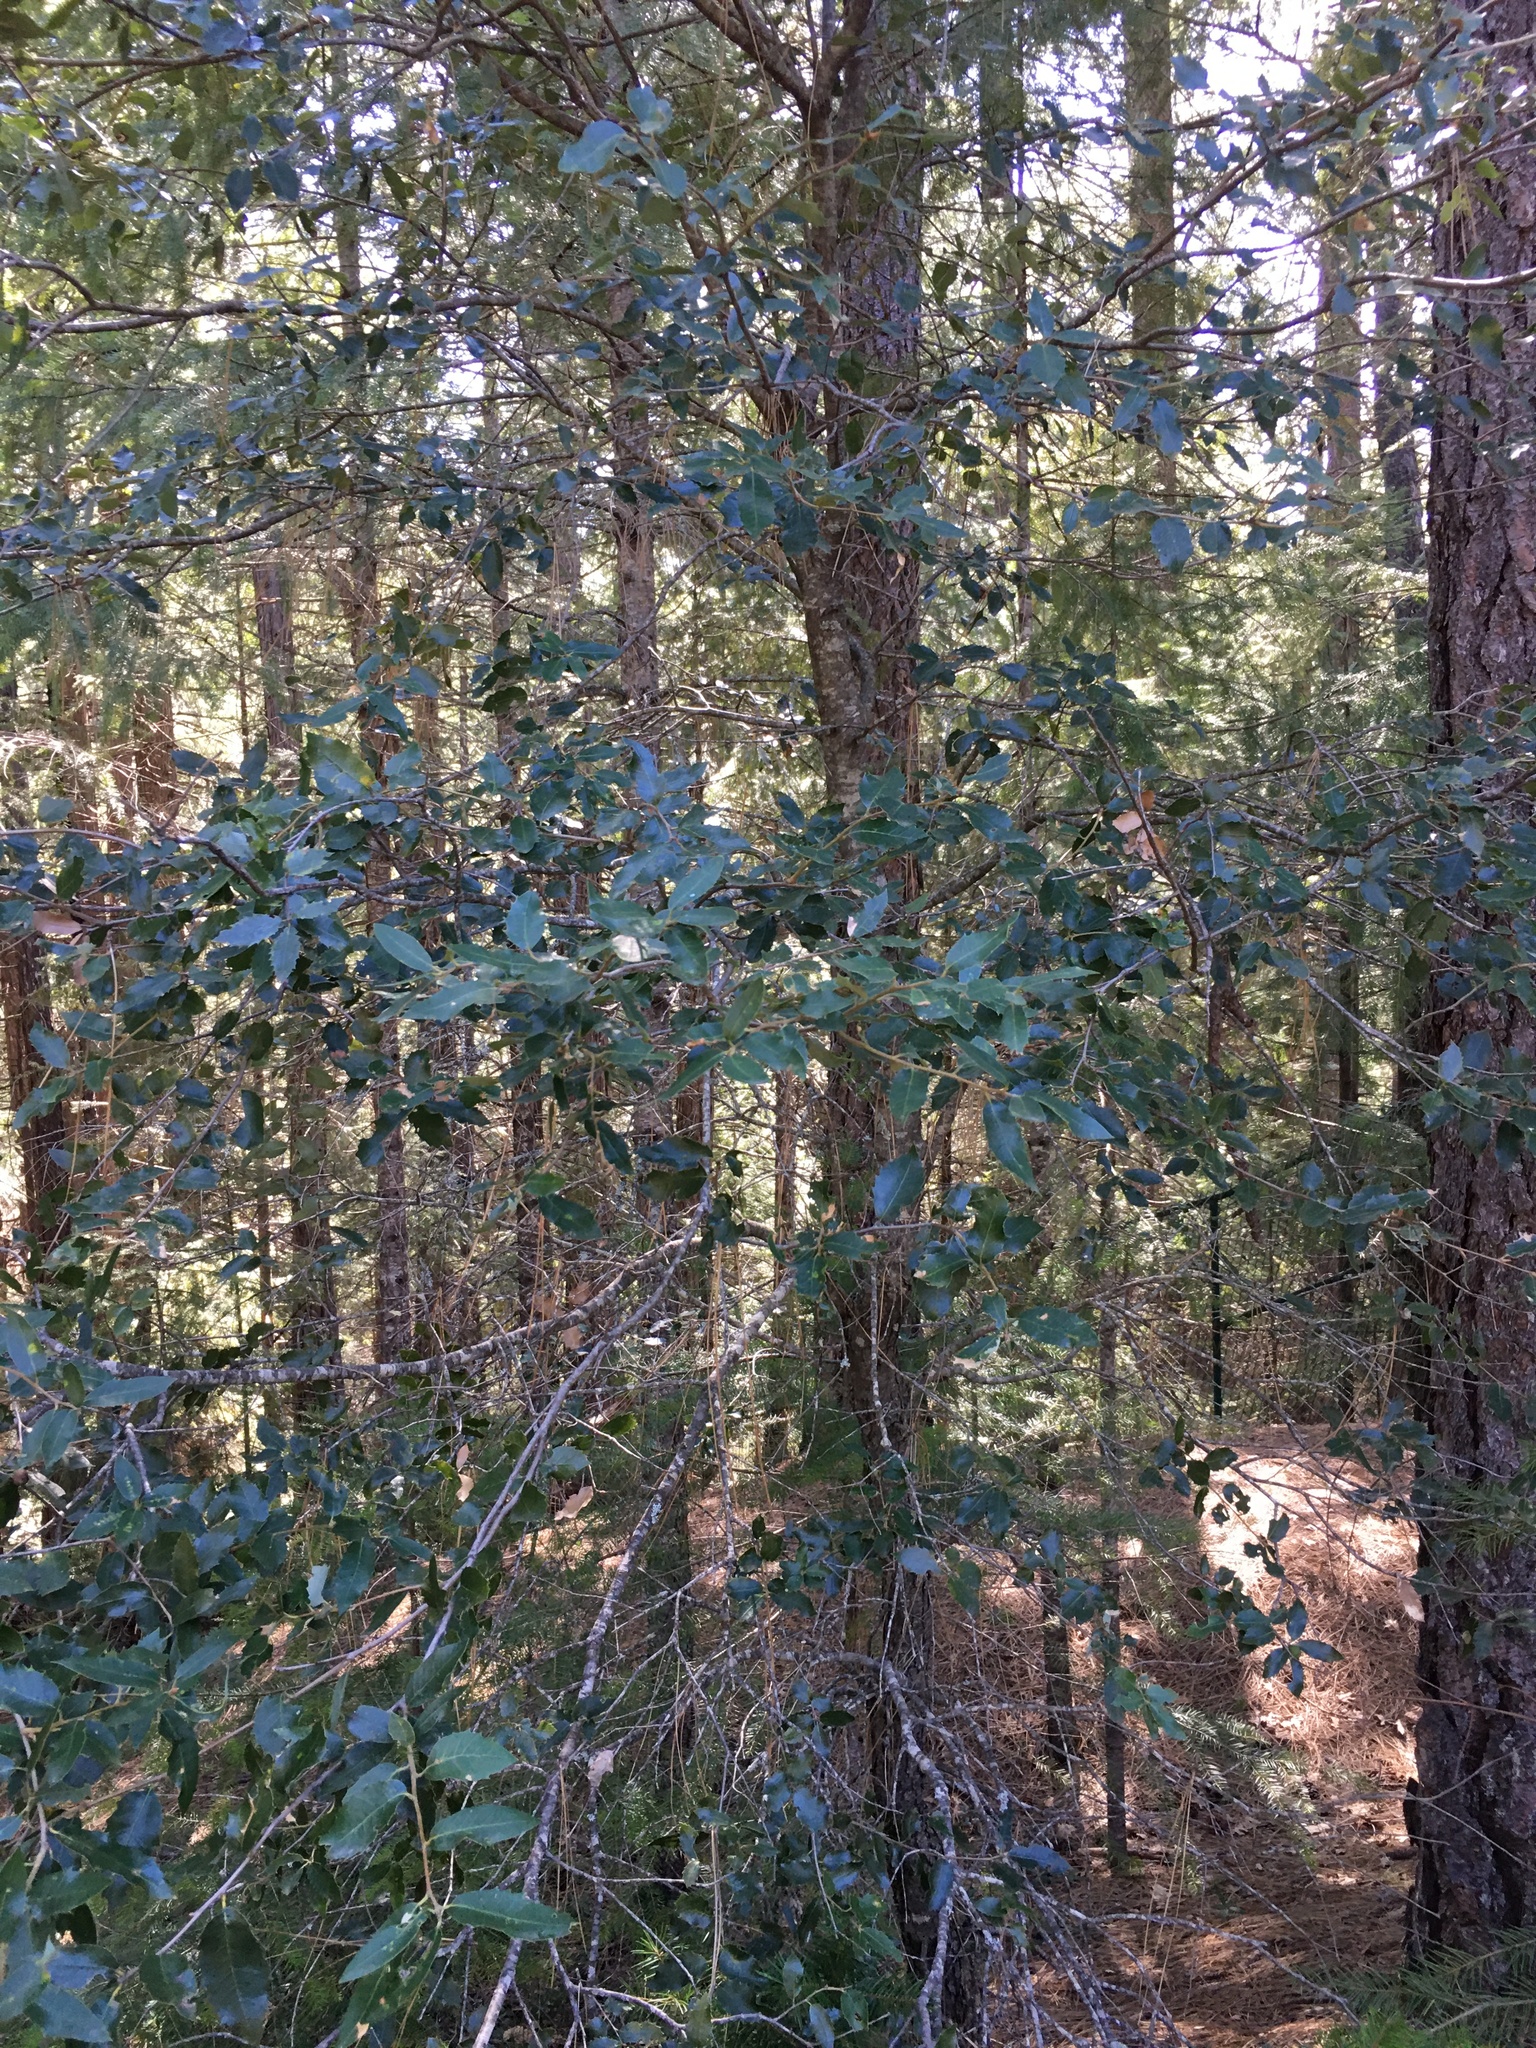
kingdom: Plantae
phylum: Tracheophyta
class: Magnoliopsida
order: Fagales
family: Fagaceae
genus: Quercus
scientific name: Quercus chrysolepis
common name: Canyon live oak
